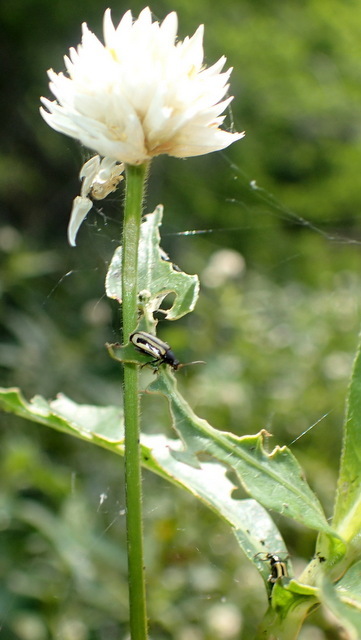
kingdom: Animalia
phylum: Arthropoda
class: Insecta
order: Coleoptera
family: Chrysomelidae
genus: Agasicles
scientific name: Agasicles hygrophila
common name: Alligatorweed flea beetle
